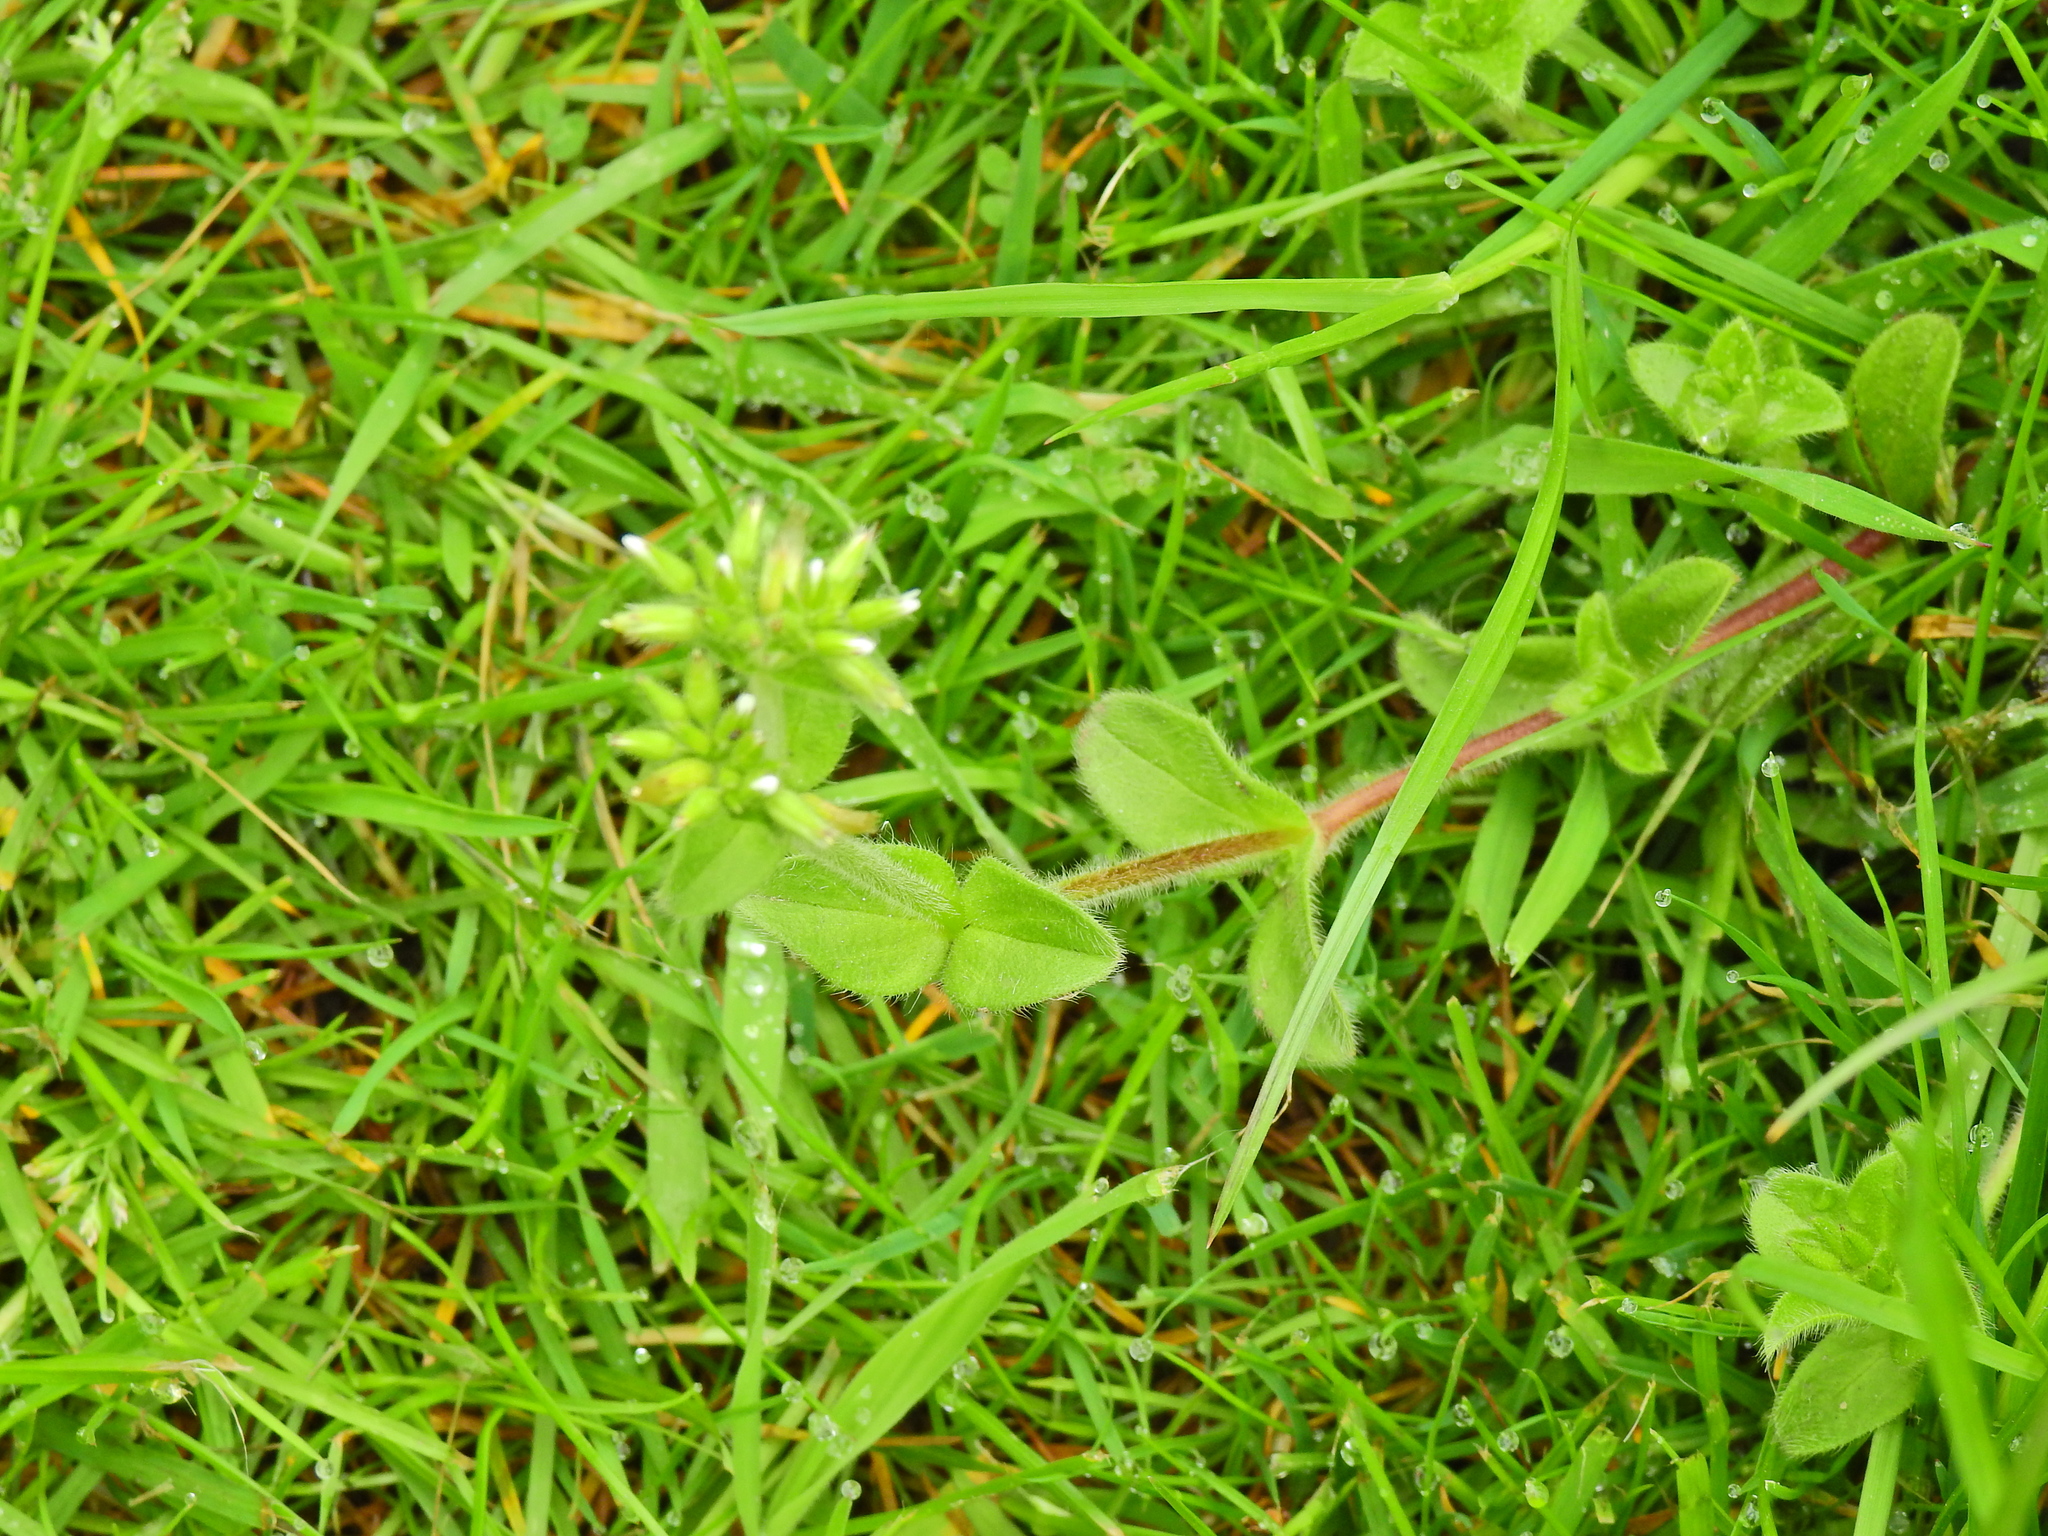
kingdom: Plantae
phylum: Tracheophyta
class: Magnoliopsida
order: Caryophyllales
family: Caryophyllaceae
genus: Cerastium
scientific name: Cerastium glomeratum
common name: Sticky chickweed
